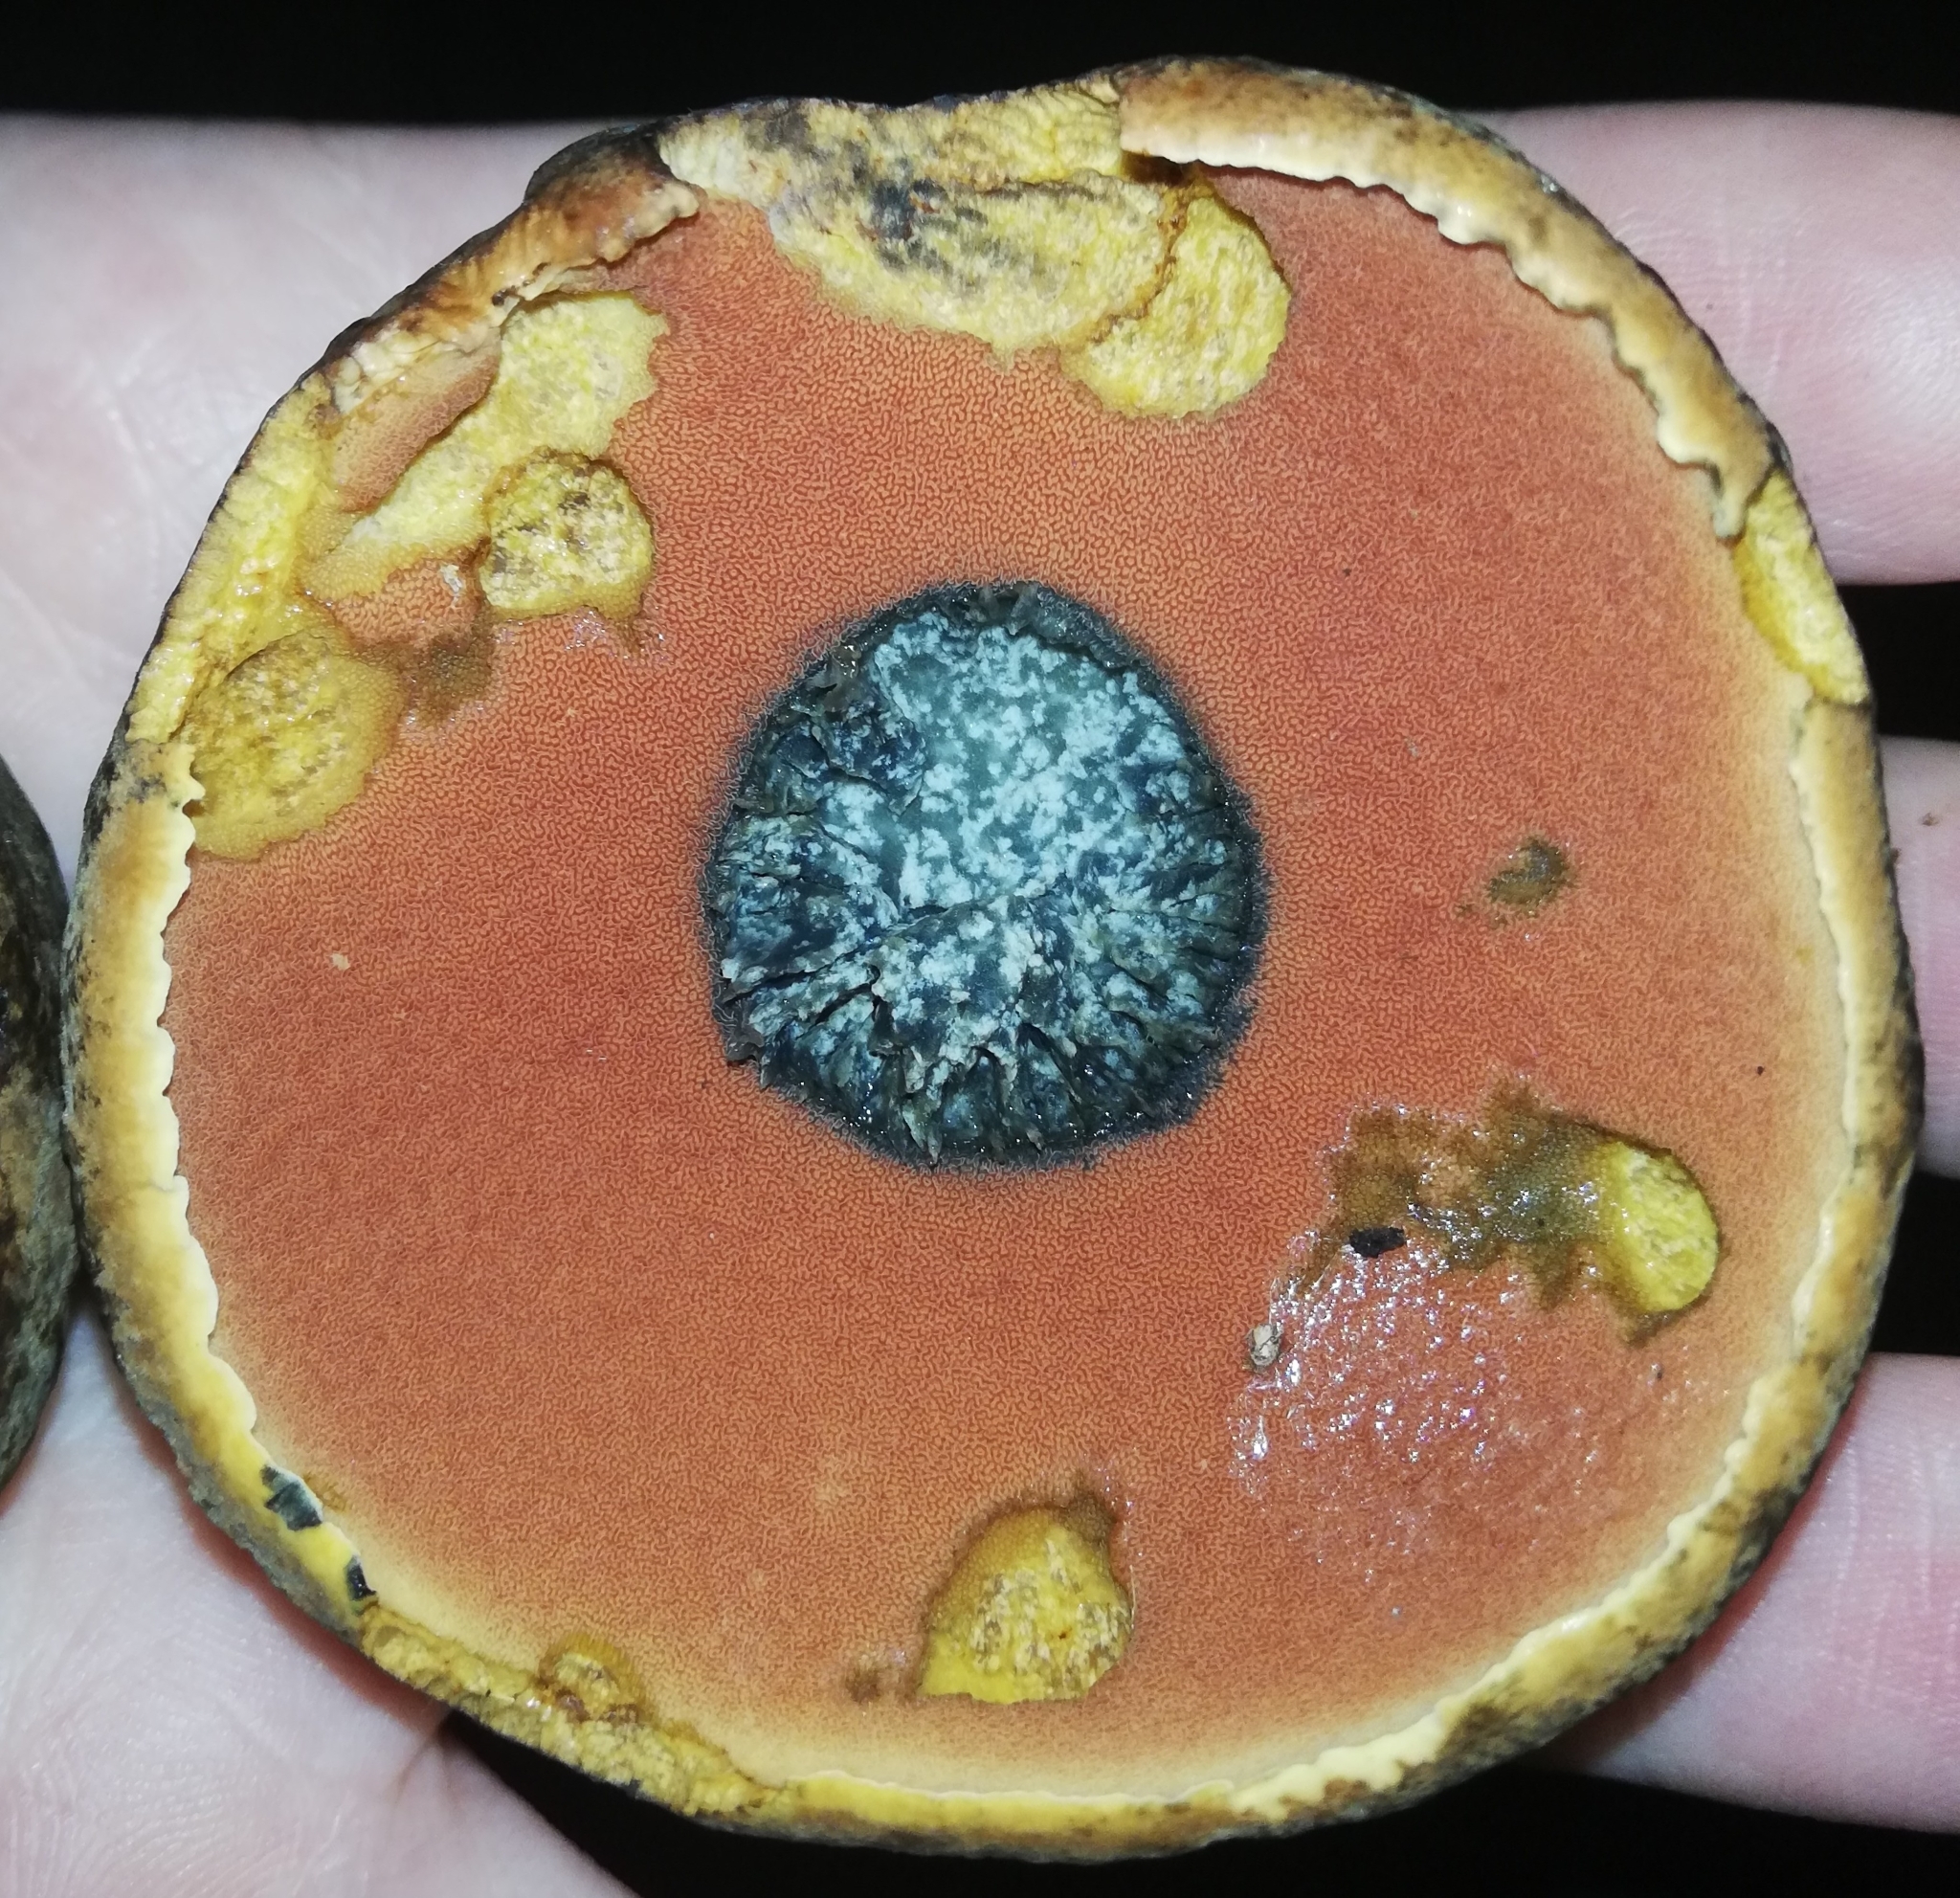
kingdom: Fungi
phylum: Basidiomycota
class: Agaricomycetes
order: Boletales
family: Boletaceae
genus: Neoboletus
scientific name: Neoboletus erythropus
